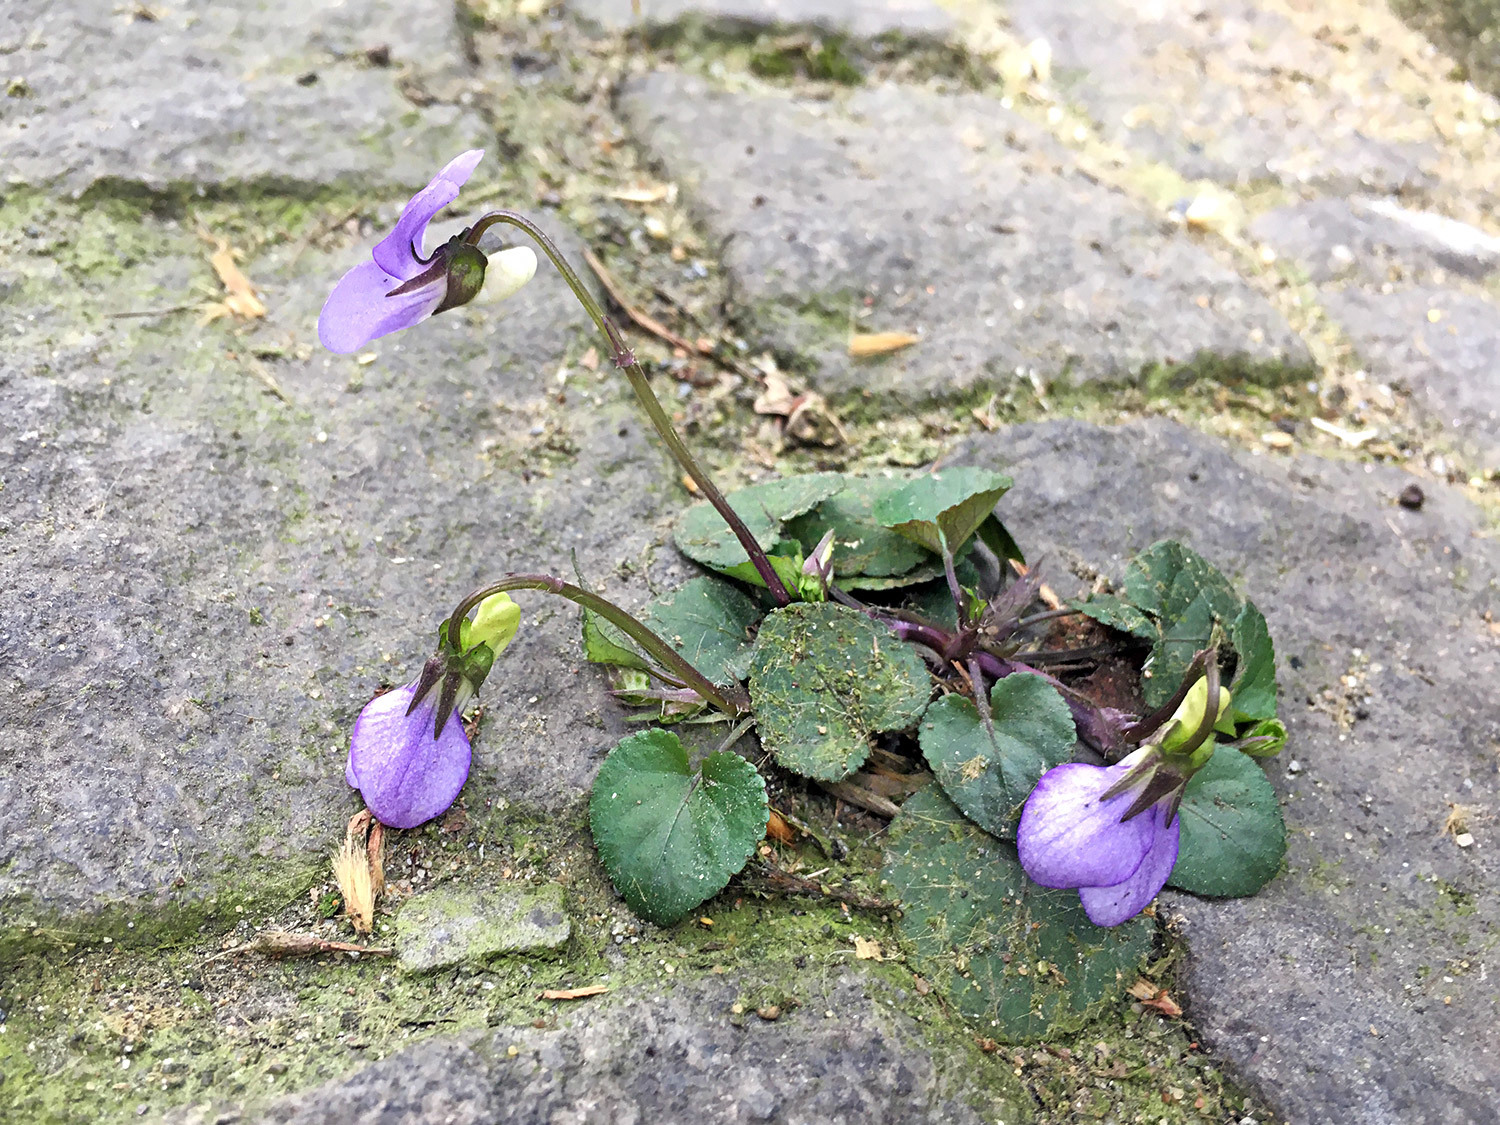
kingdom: Plantae
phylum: Tracheophyta
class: Magnoliopsida
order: Malpighiales
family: Violaceae
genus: Viola
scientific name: Viola riviniana
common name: Common dog-violet
